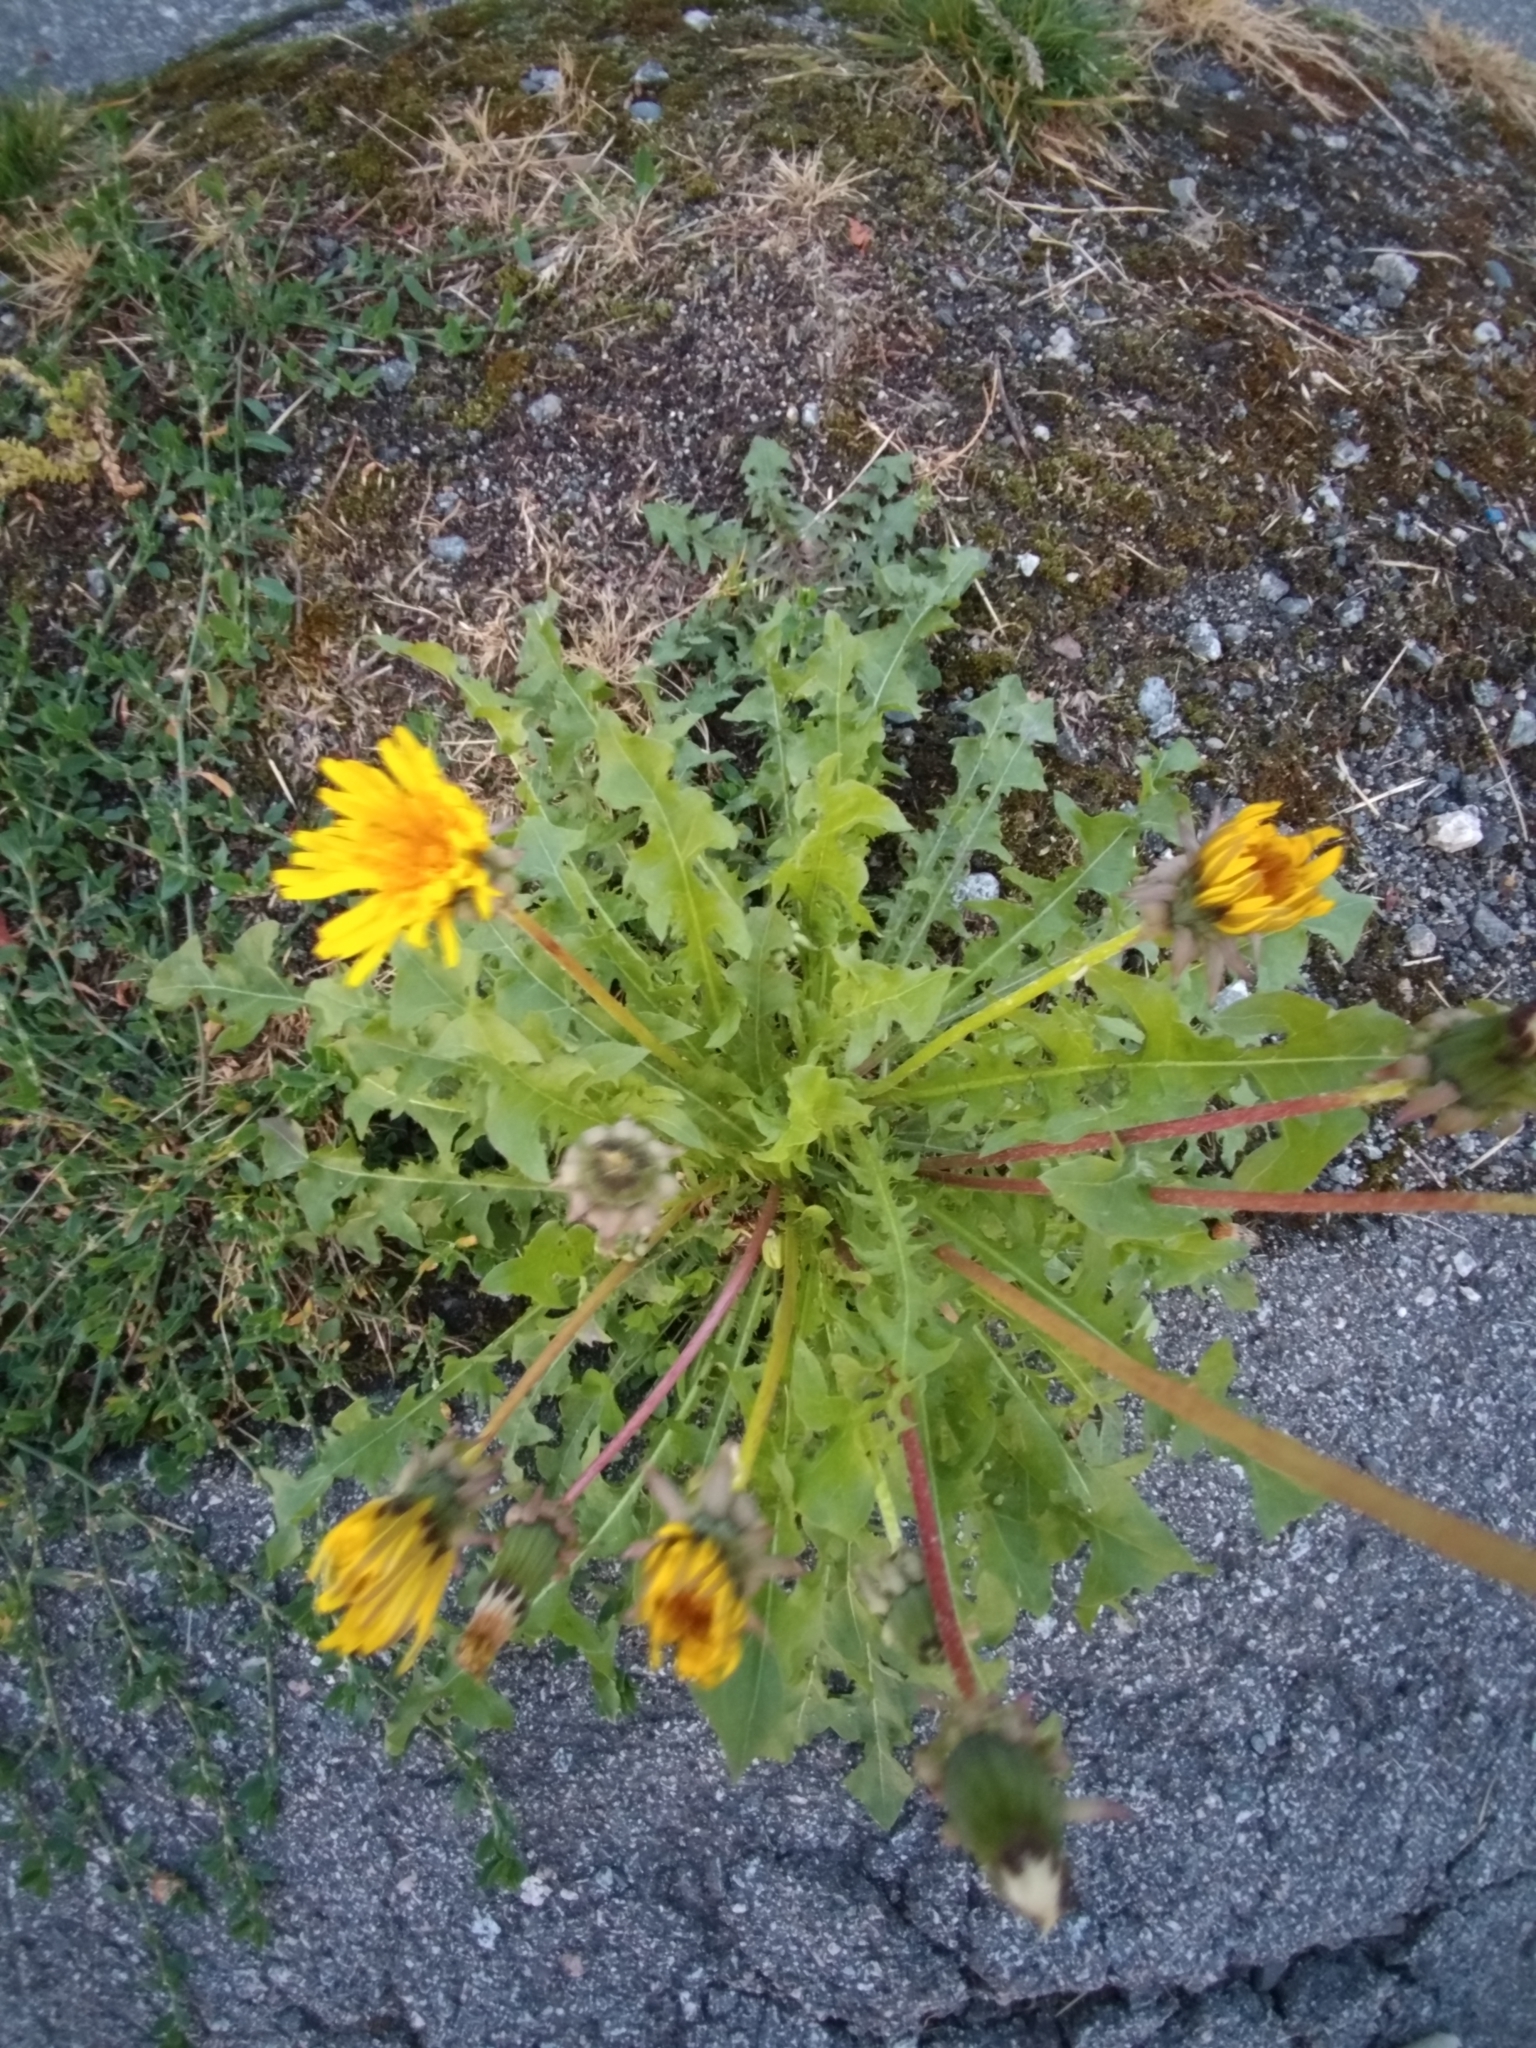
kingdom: Plantae
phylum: Tracheophyta
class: Magnoliopsida
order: Asterales
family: Asteraceae
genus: Taraxacum
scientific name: Taraxacum officinale
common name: Common dandelion
